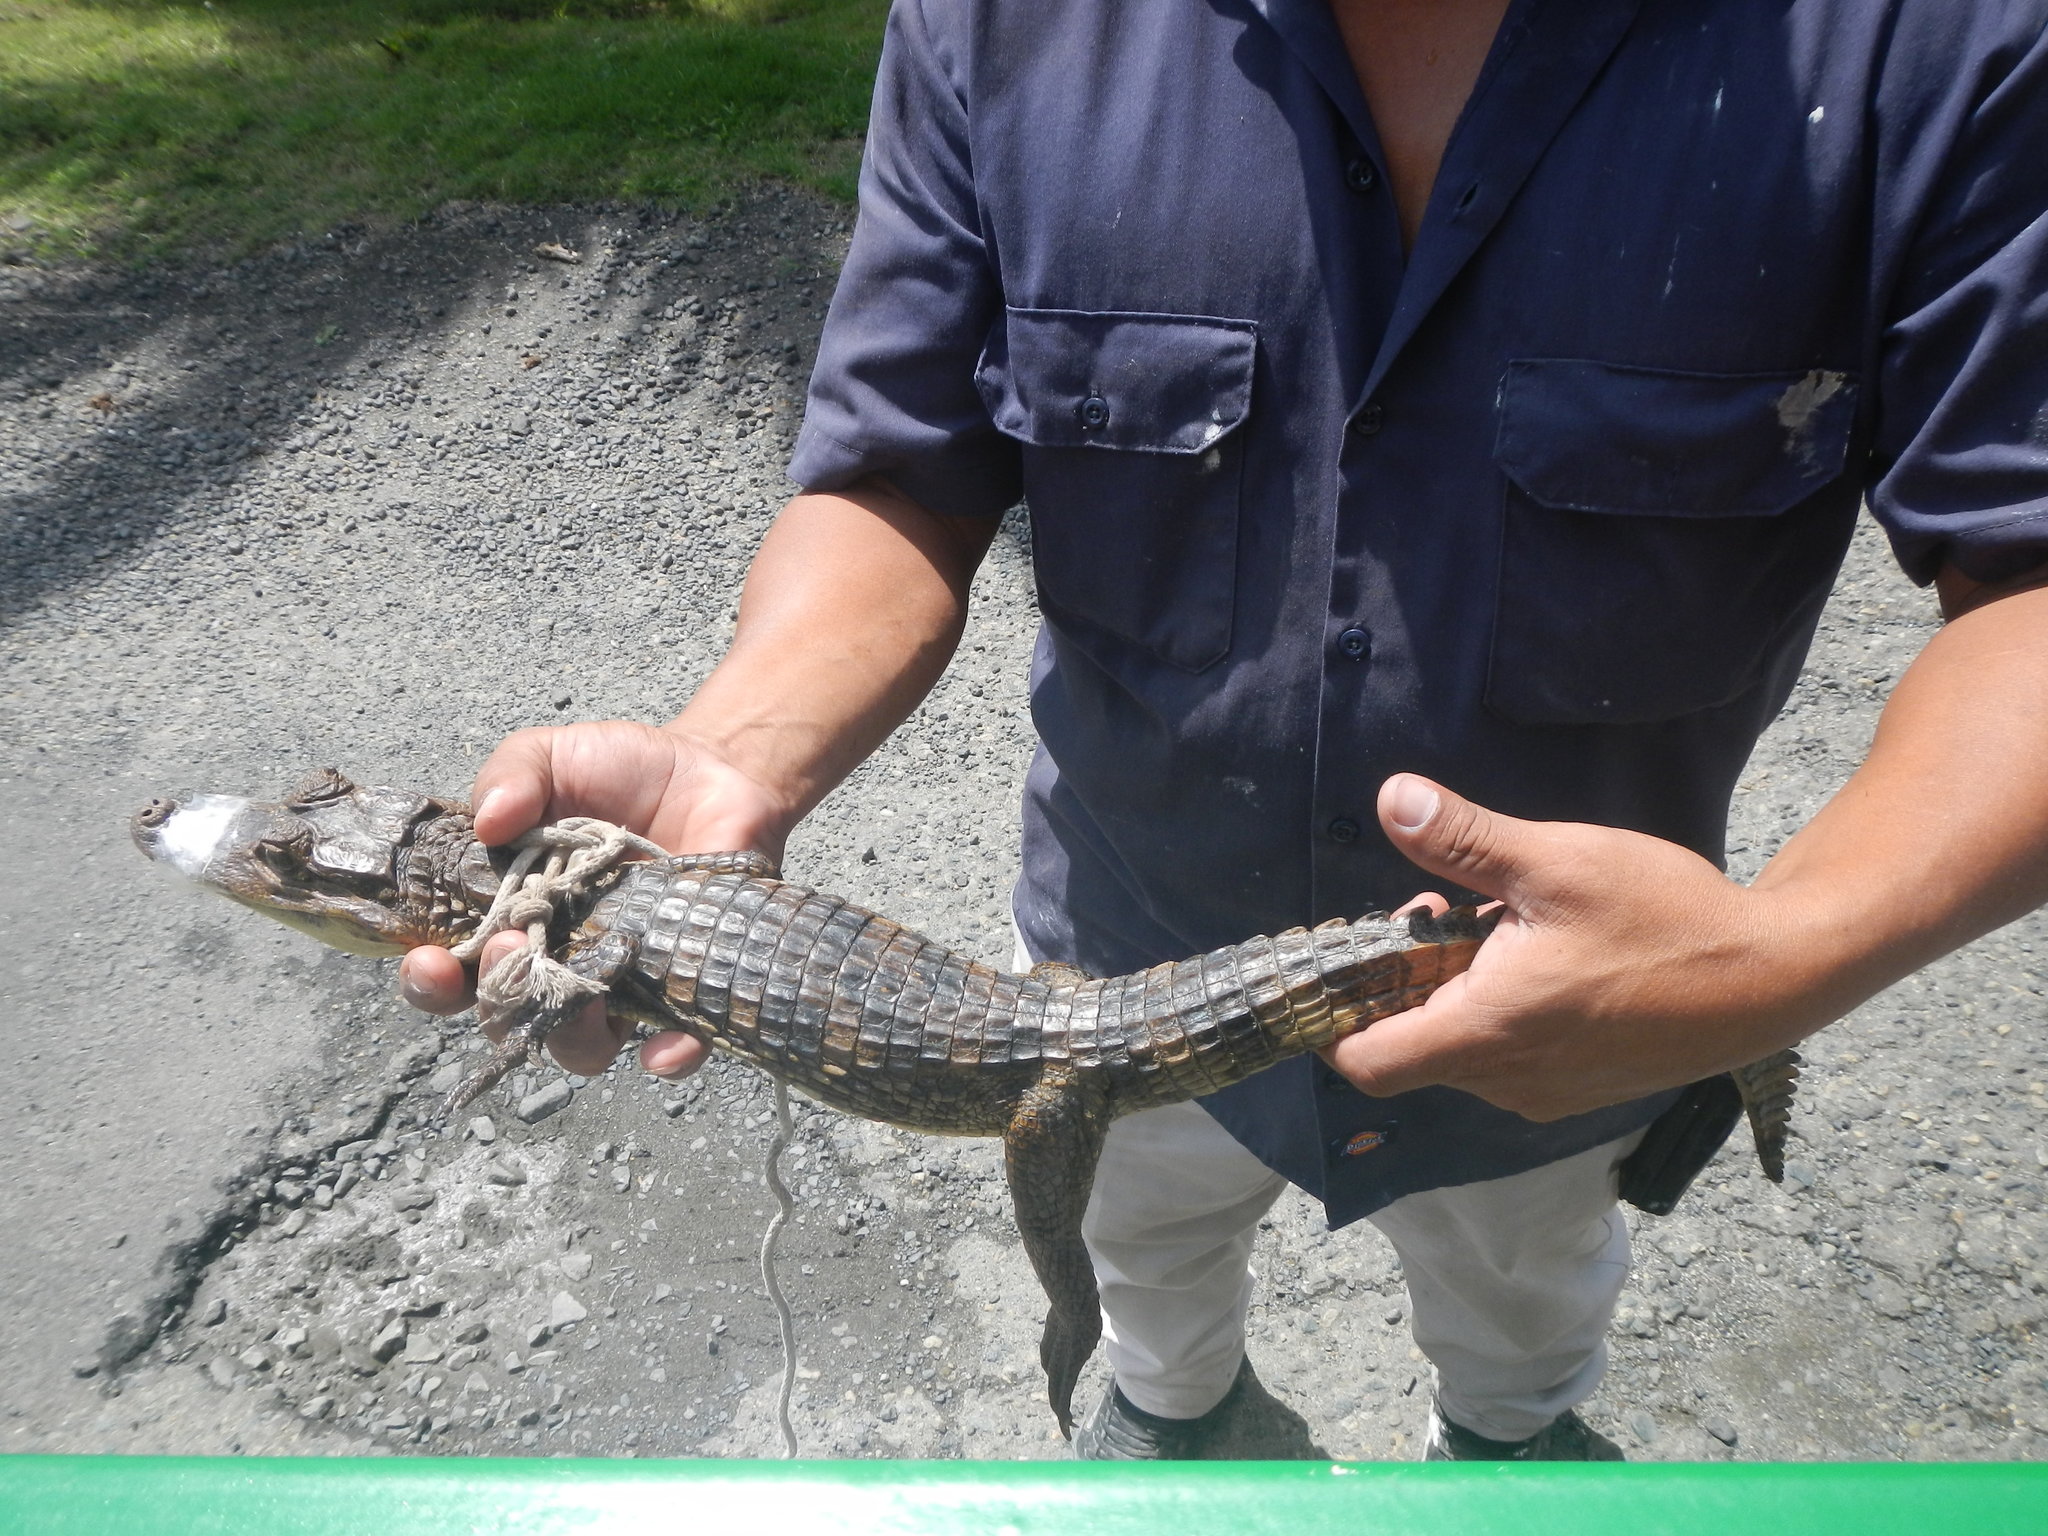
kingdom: Animalia
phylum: Chordata
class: Crocodylia
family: Alligatoridae
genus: Caiman
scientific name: Caiman crocodilus
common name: Common caiman
